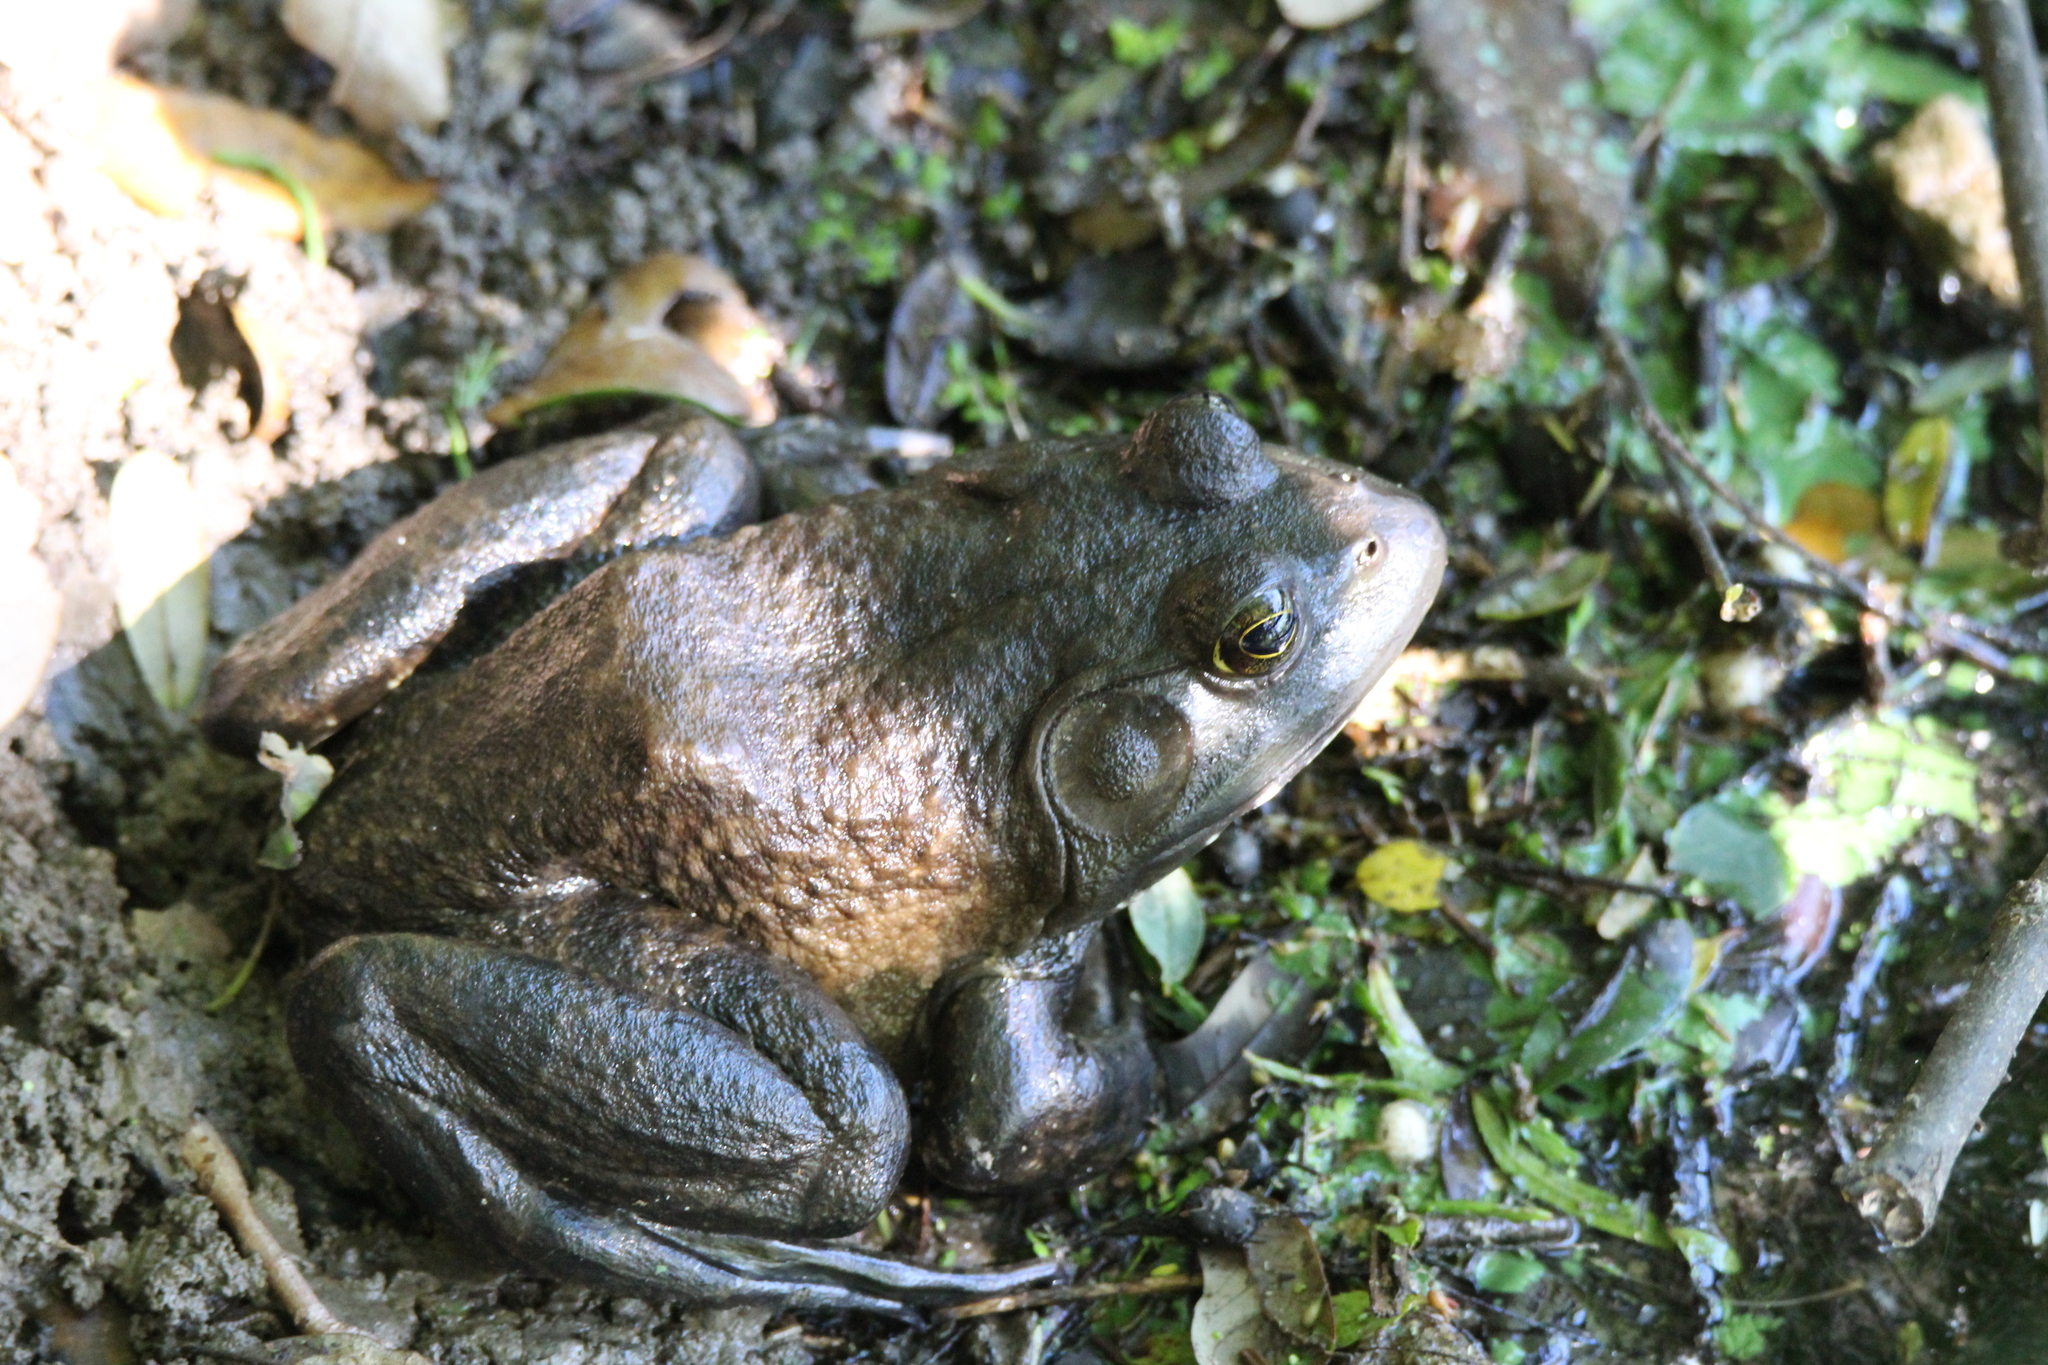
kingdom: Animalia
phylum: Chordata
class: Amphibia
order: Anura
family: Ranidae
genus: Lithobates
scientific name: Lithobates catesbeianus
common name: American bullfrog
